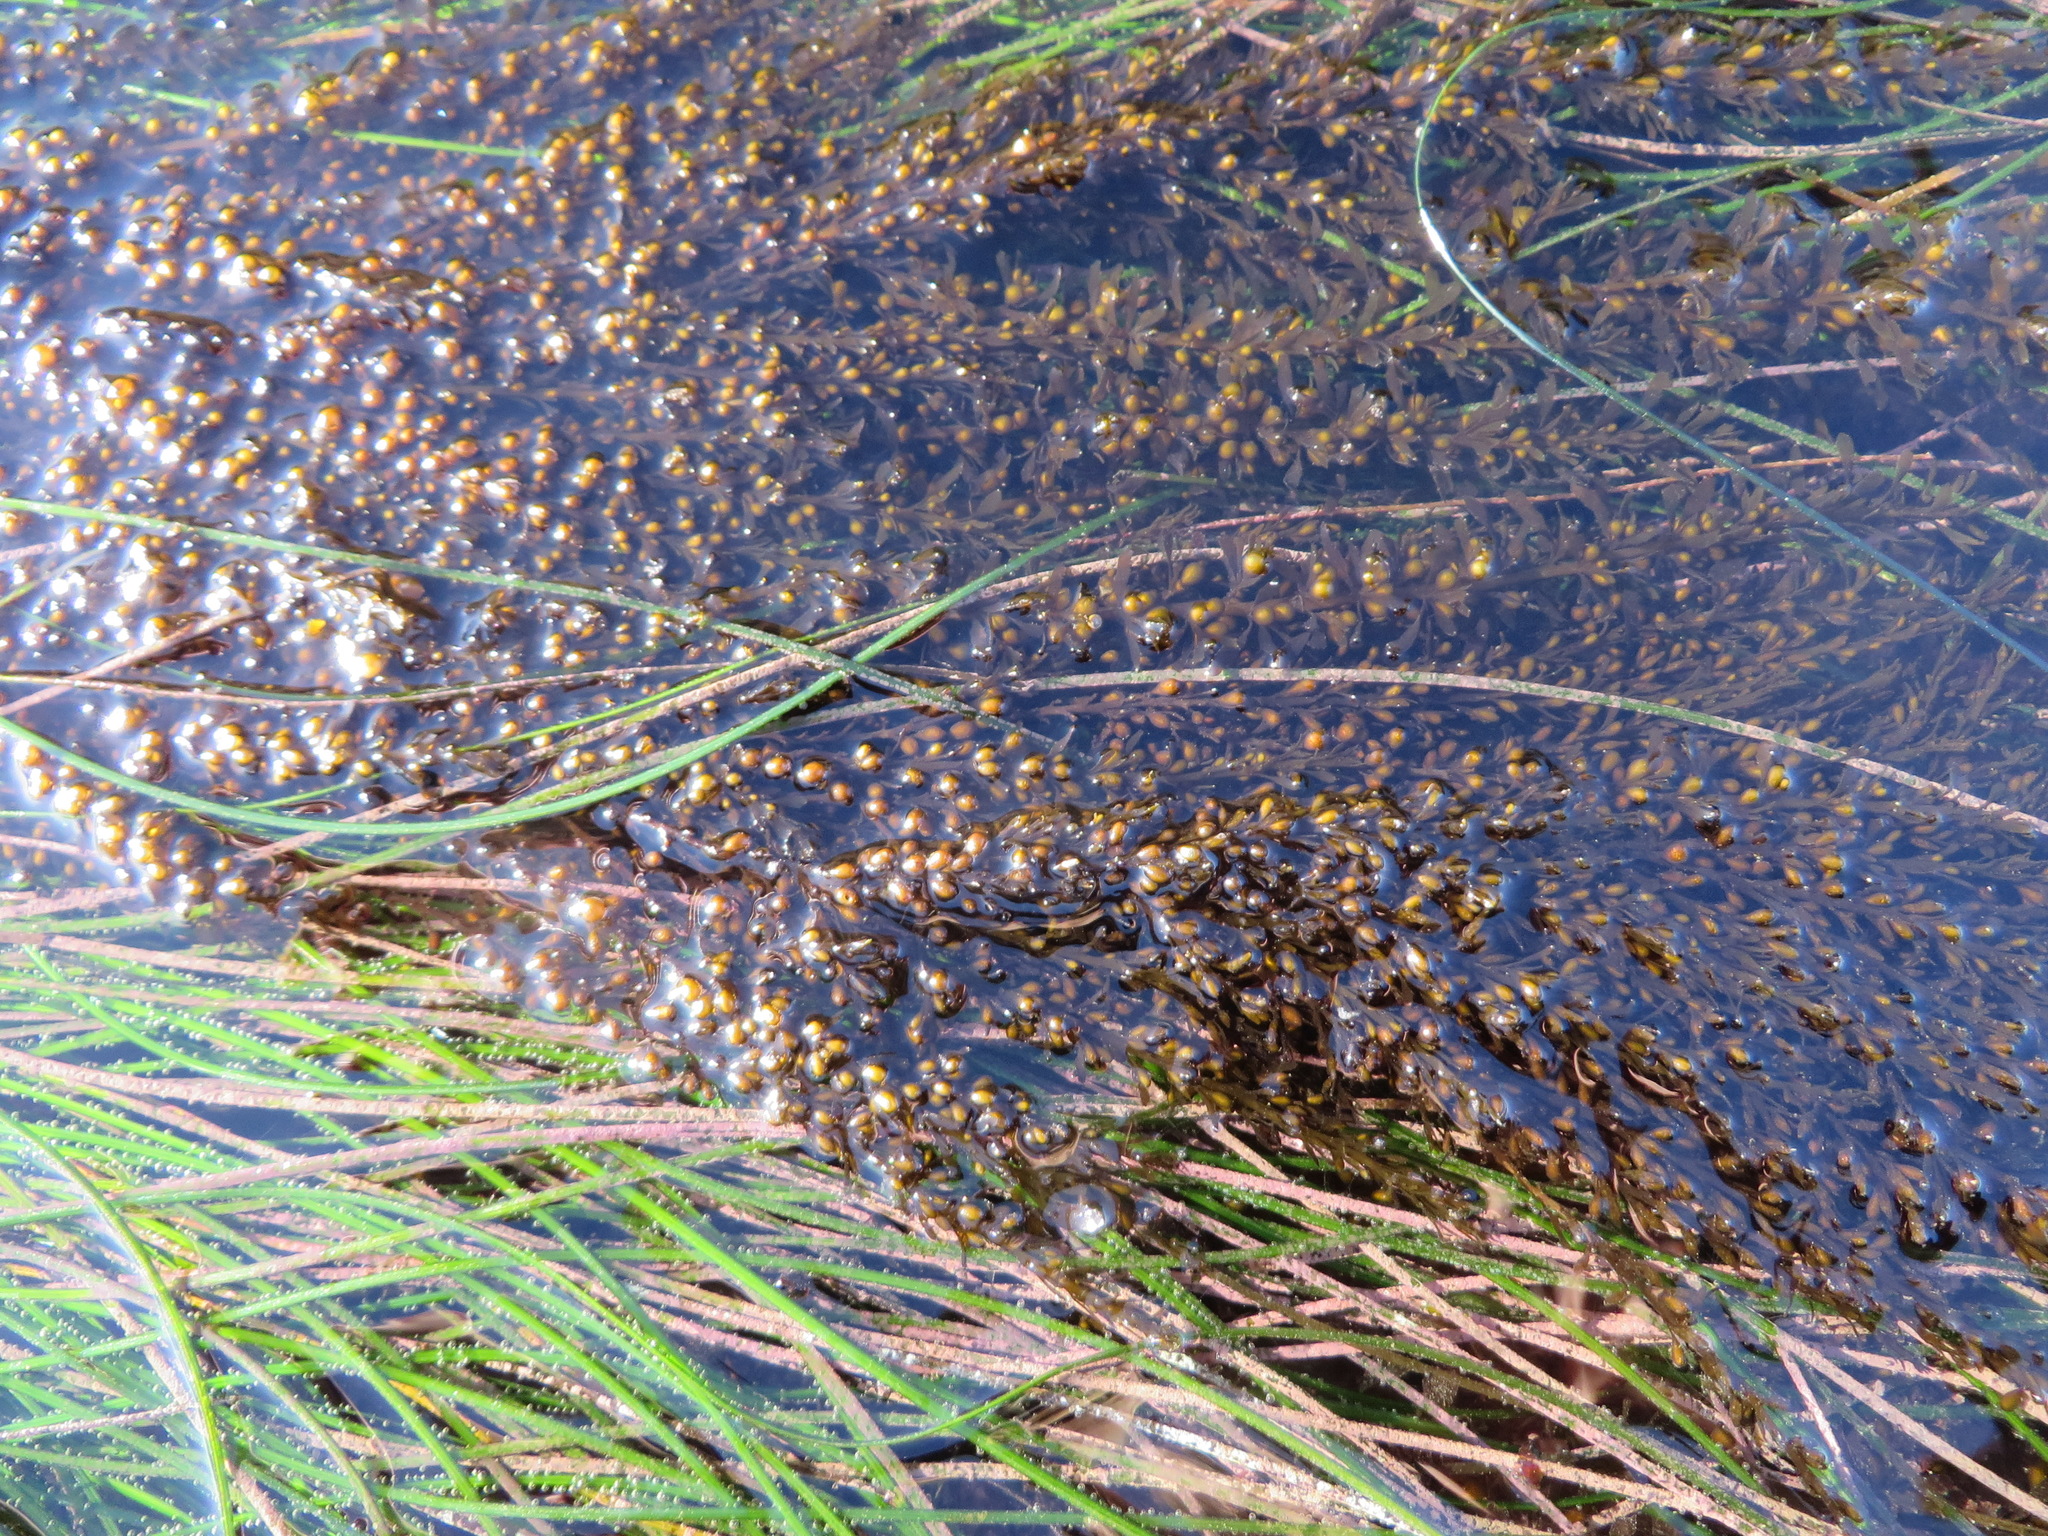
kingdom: Chromista
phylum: Ochrophyta
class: Phaeophyceae
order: Fucales
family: Sargassaceae
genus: Sargassum
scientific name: Sargassum muticum
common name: Japweed
